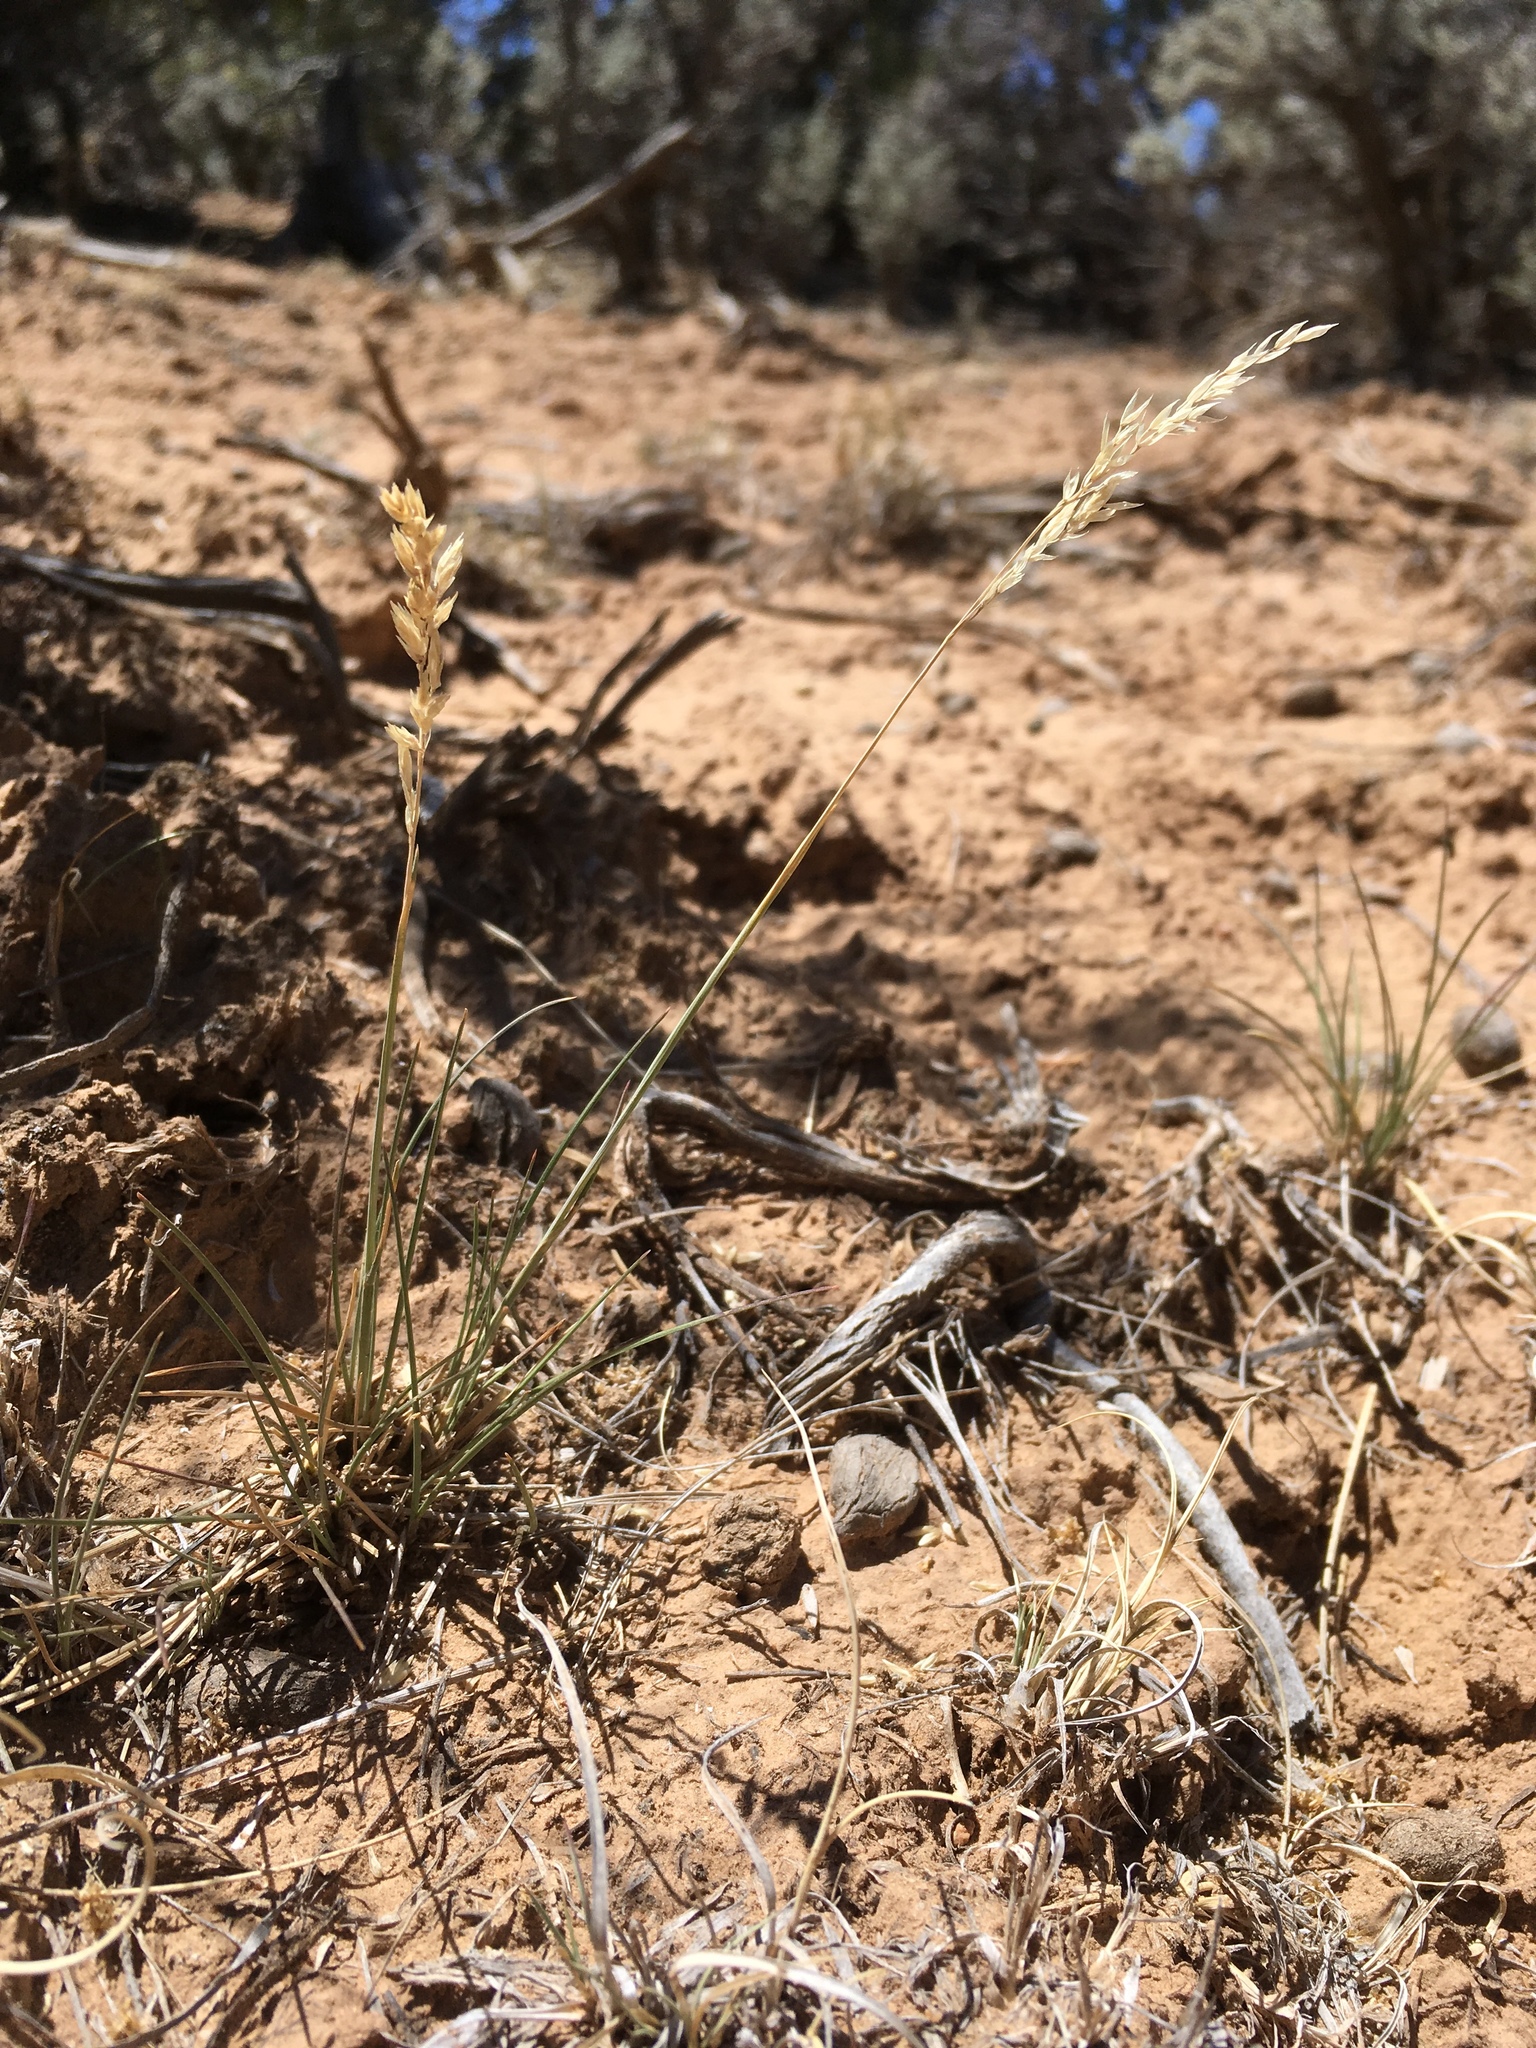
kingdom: Plantae
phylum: Tracheophyta
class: Liliopsida
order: Poales
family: Poaceae
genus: Poa
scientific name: Poa fendleriana
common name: Mutton bluegrass
